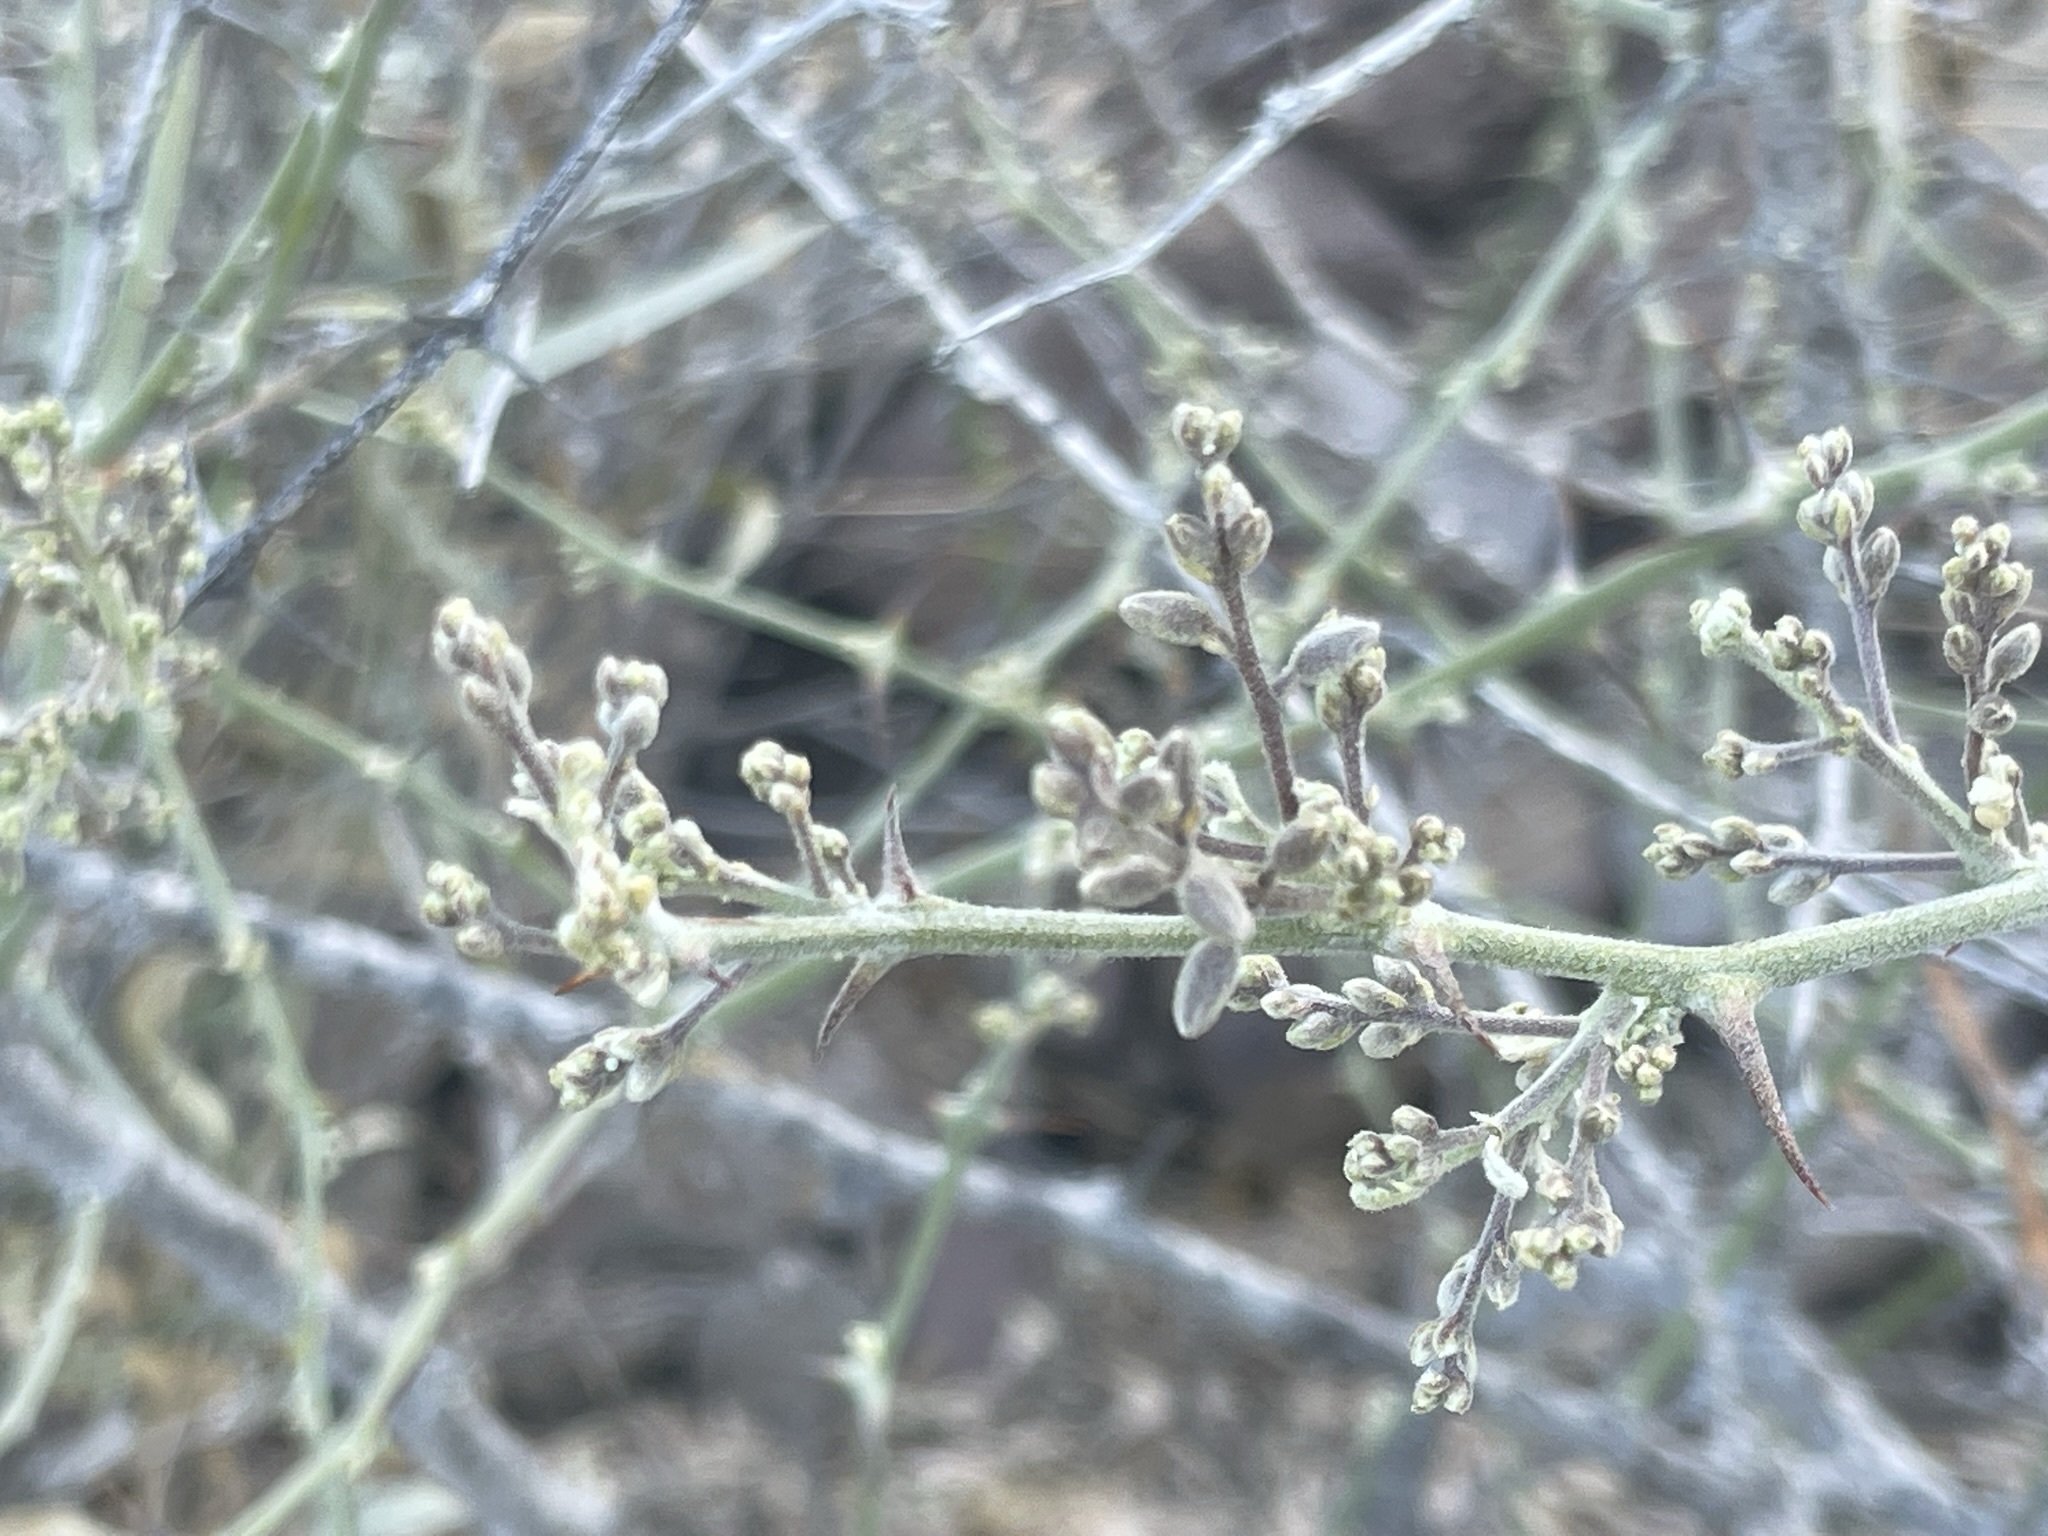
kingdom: Plantae
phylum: Tracheophyta
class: Magnoliopsida
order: Fabales
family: Fabaceae
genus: Olneya
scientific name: Olneya tesota
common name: Desert ironwood
